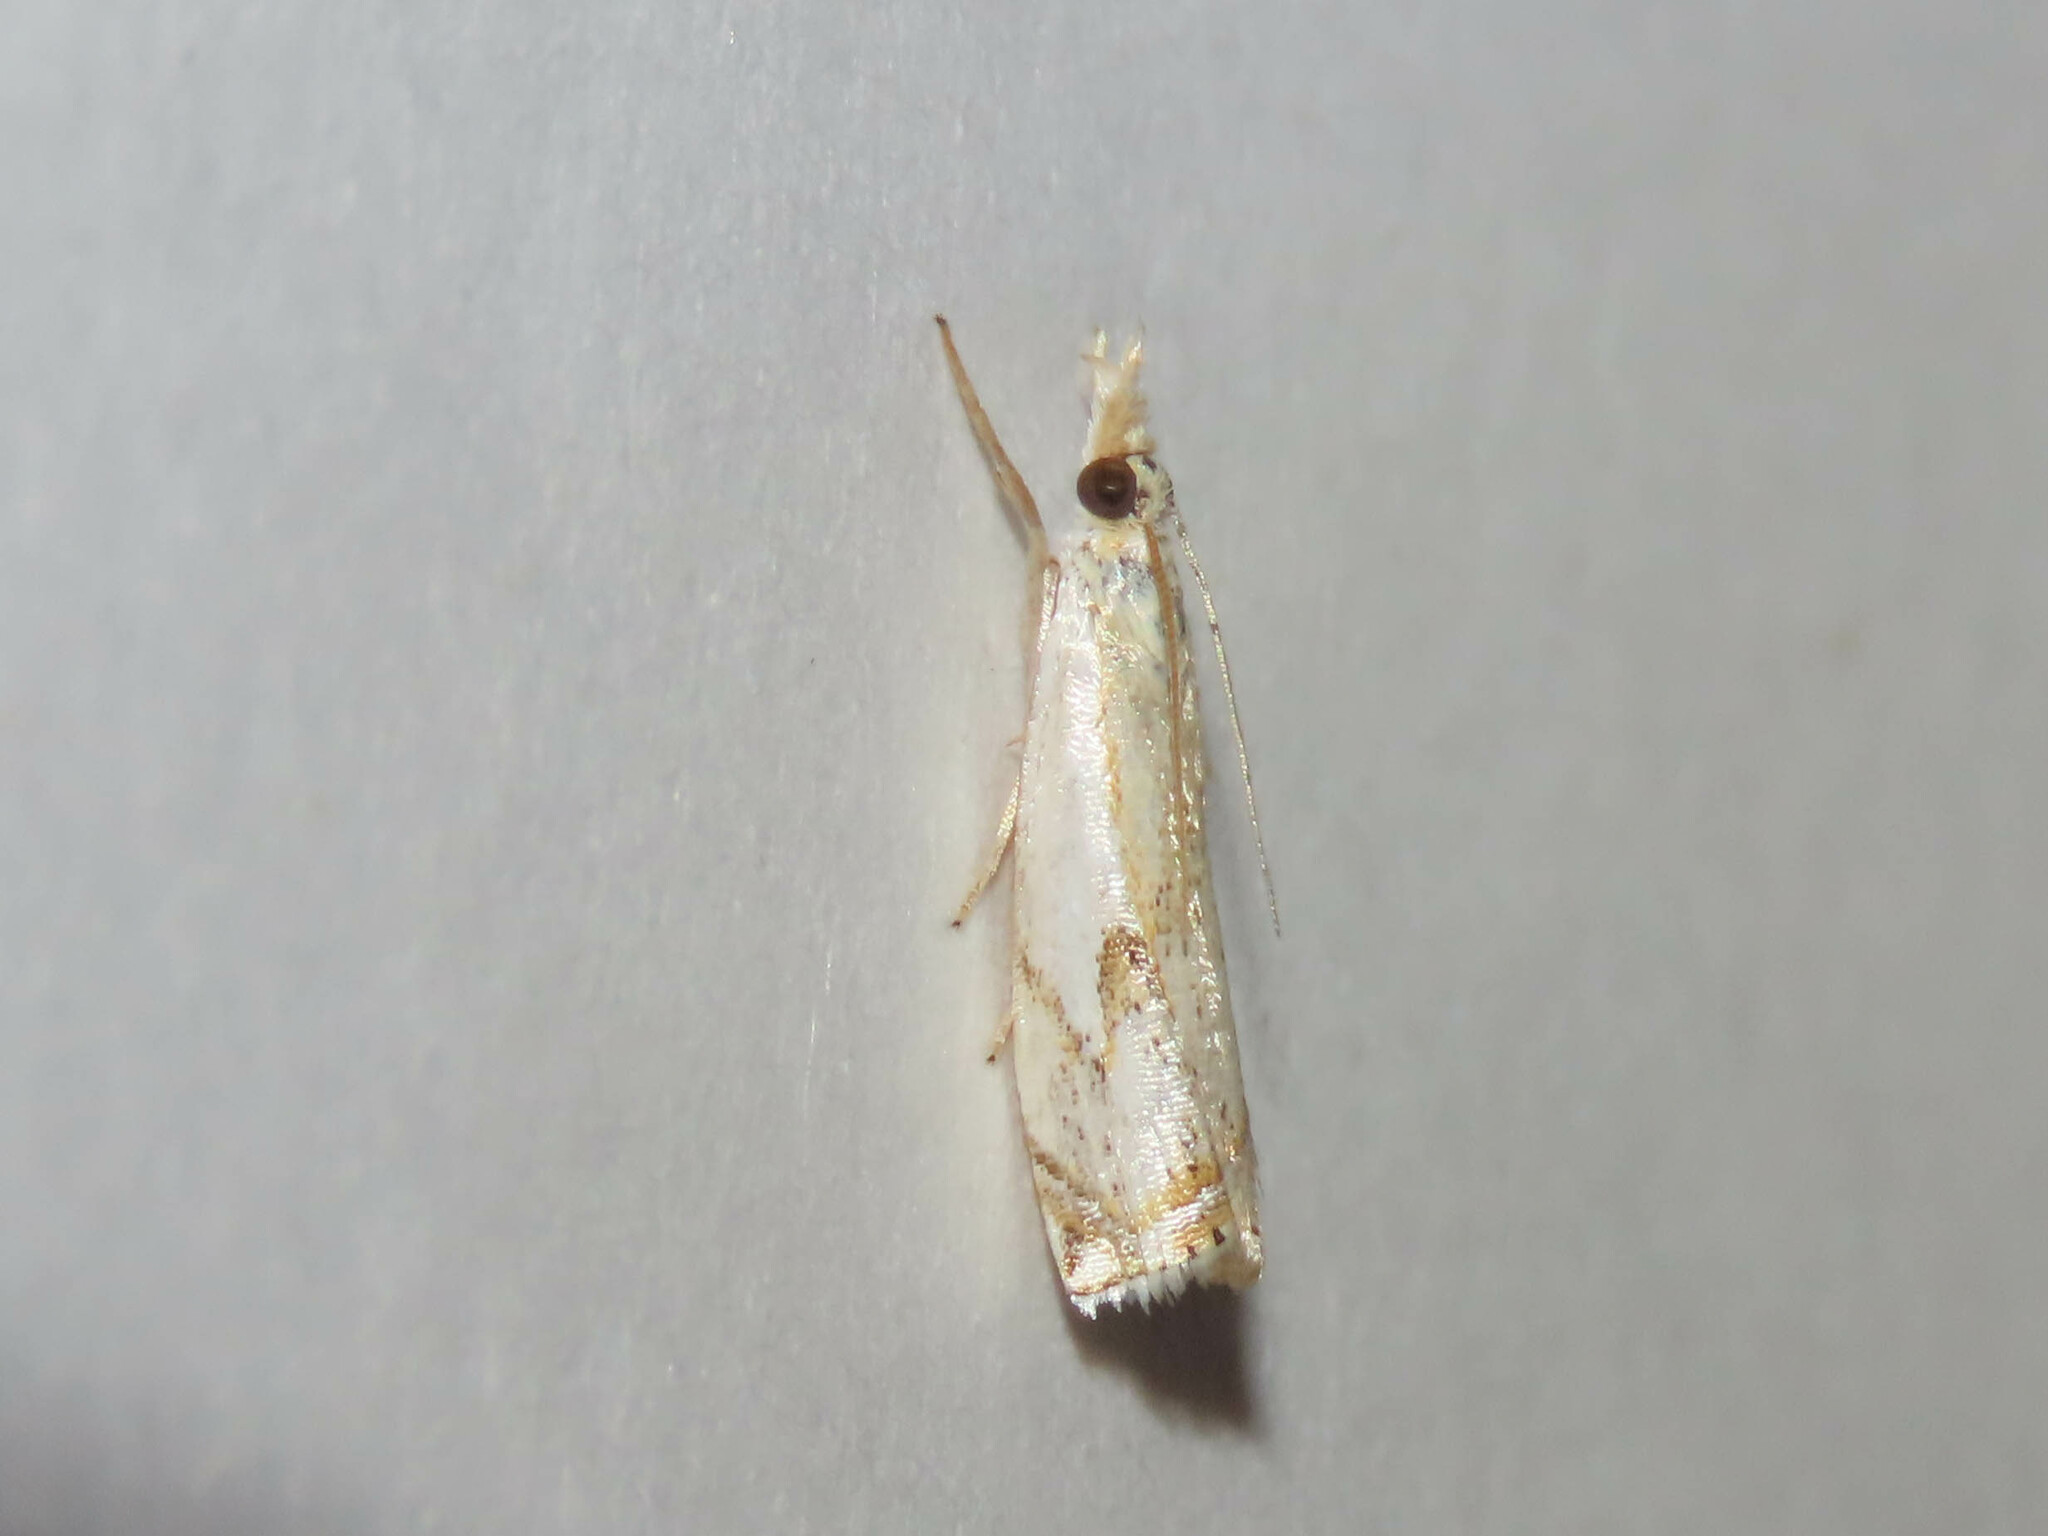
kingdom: Animalia
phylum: Arthropoda
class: Insecta
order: Lepidoptera
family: Crambidae
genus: Crambus
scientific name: Crambus agitatellus
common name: Double-banded grass-veneer
